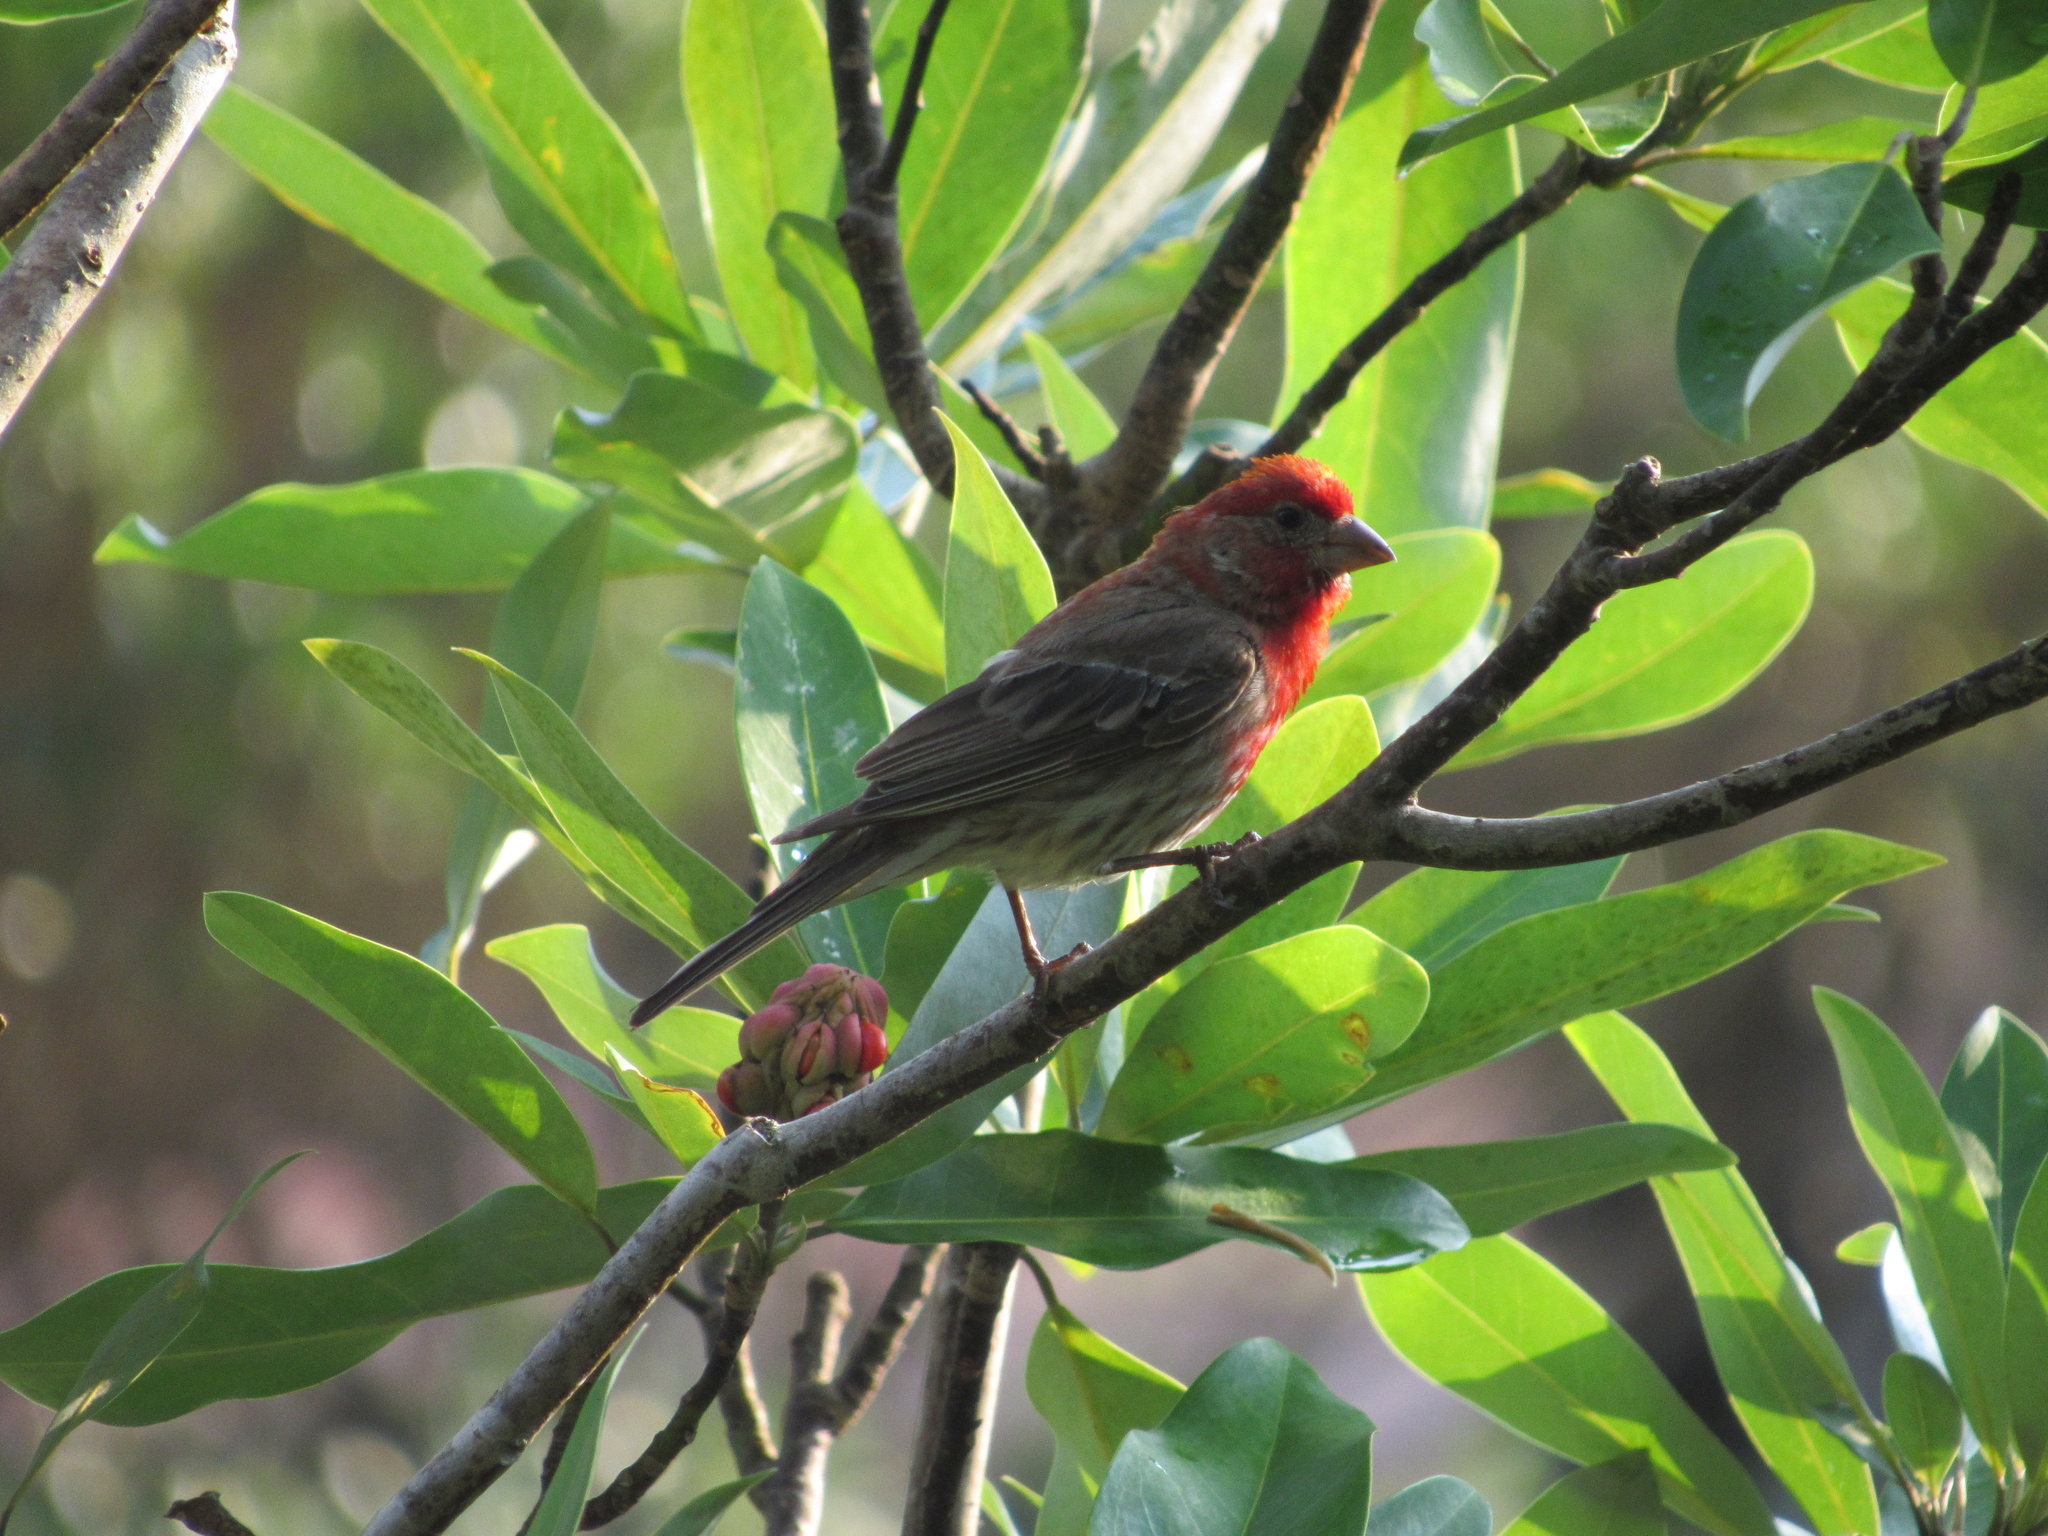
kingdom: Animalia
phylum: Chordata
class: Aves
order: Passeriformes
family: Fringillidae
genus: Haemorhous
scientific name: Haemorhous mexicanus
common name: House finch
